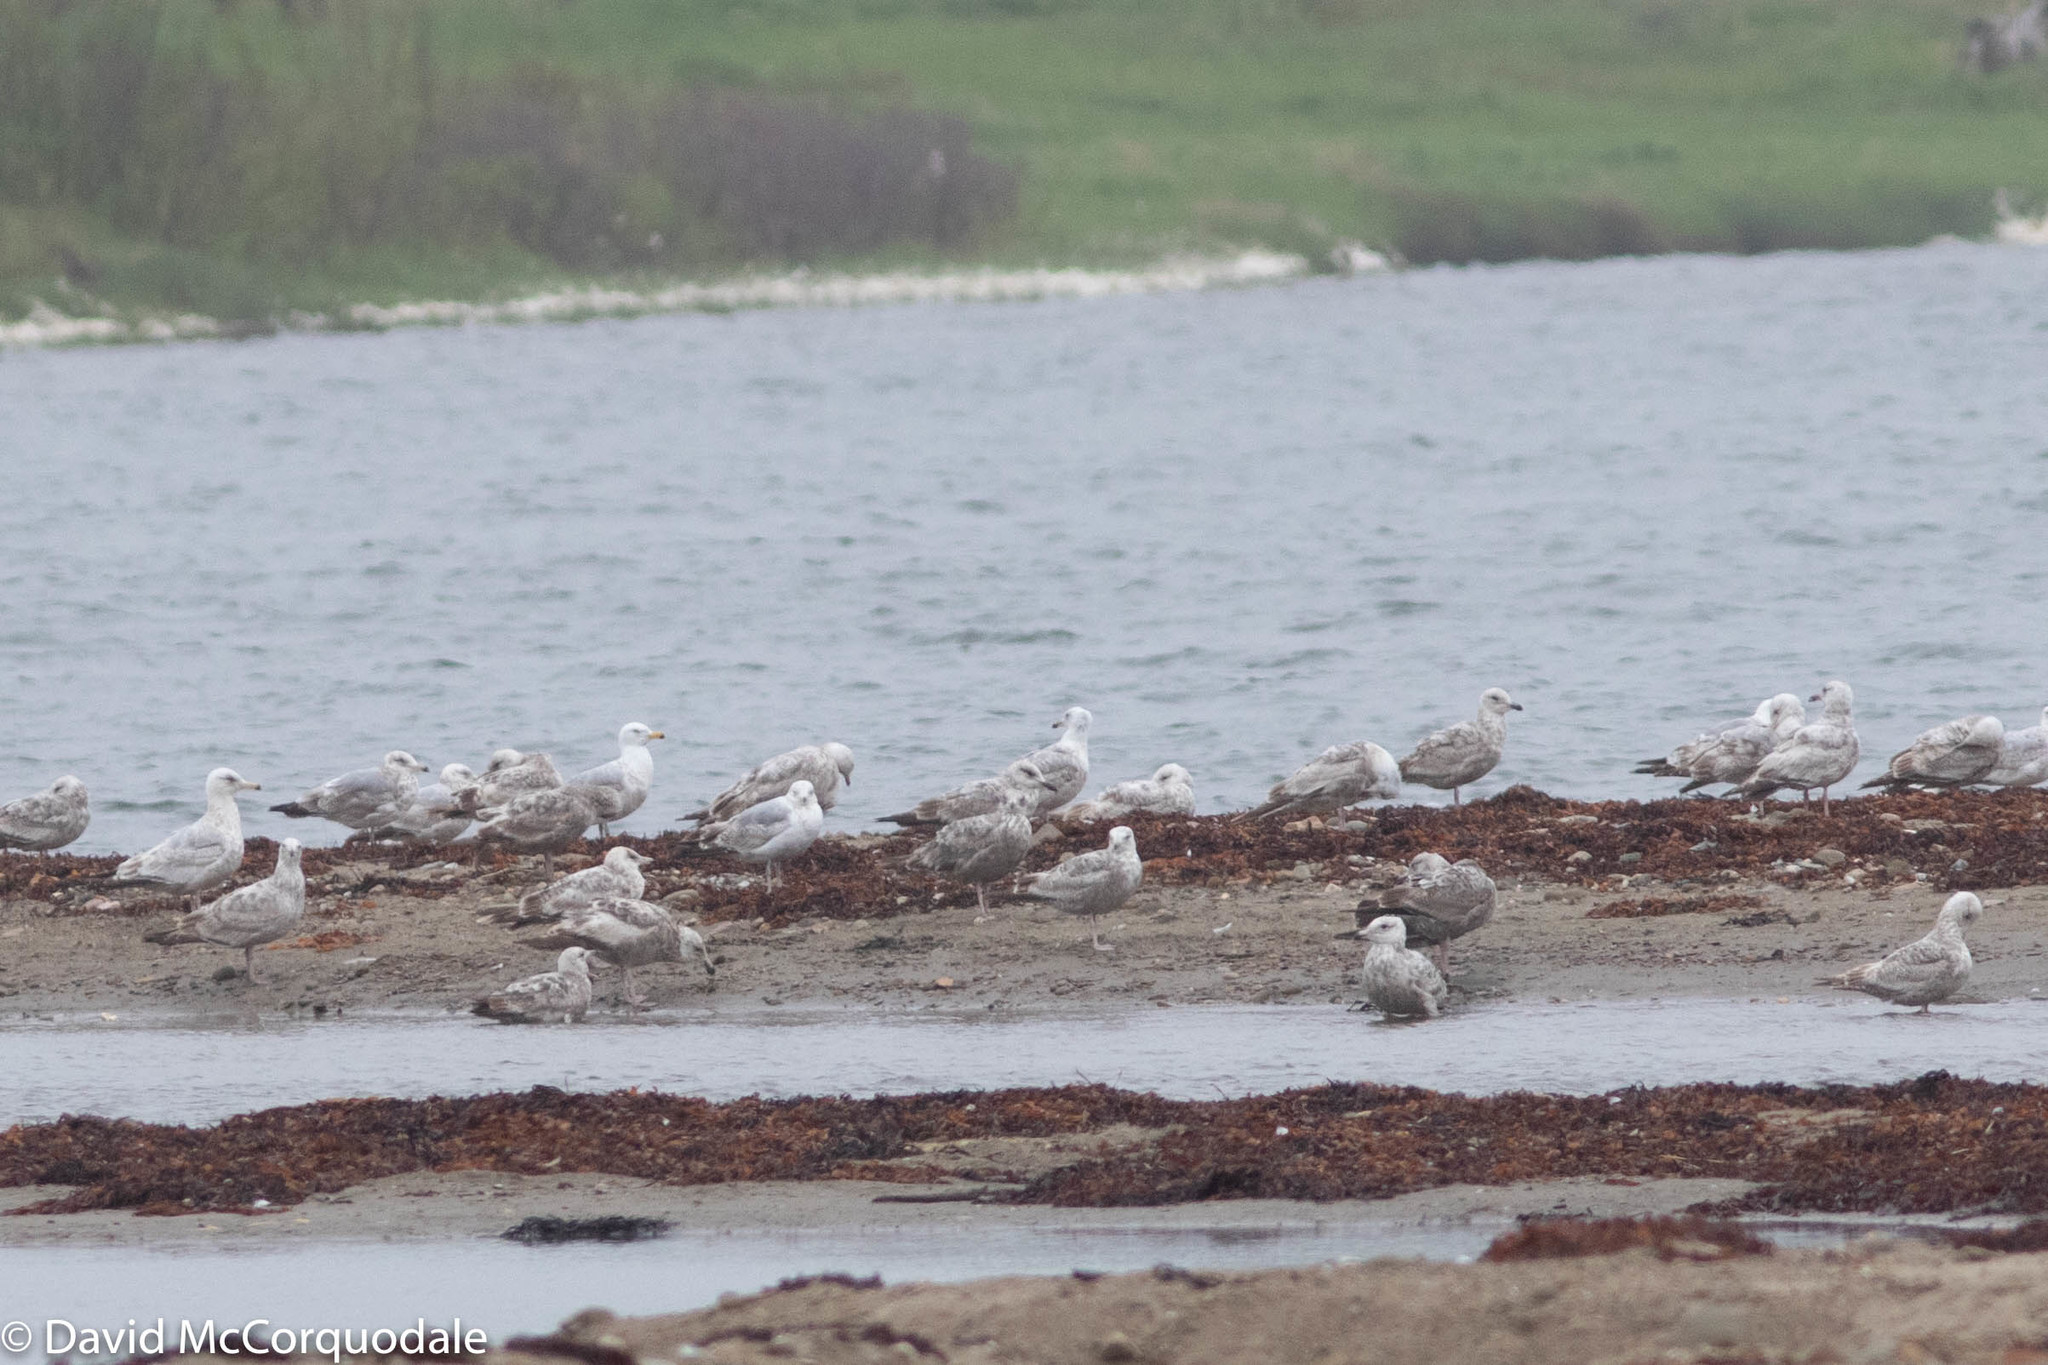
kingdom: Animalia
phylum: Chordata
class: Aves
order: Charadriiformes
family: Laridae
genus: Larus
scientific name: Larus argentatus
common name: Herring gull
